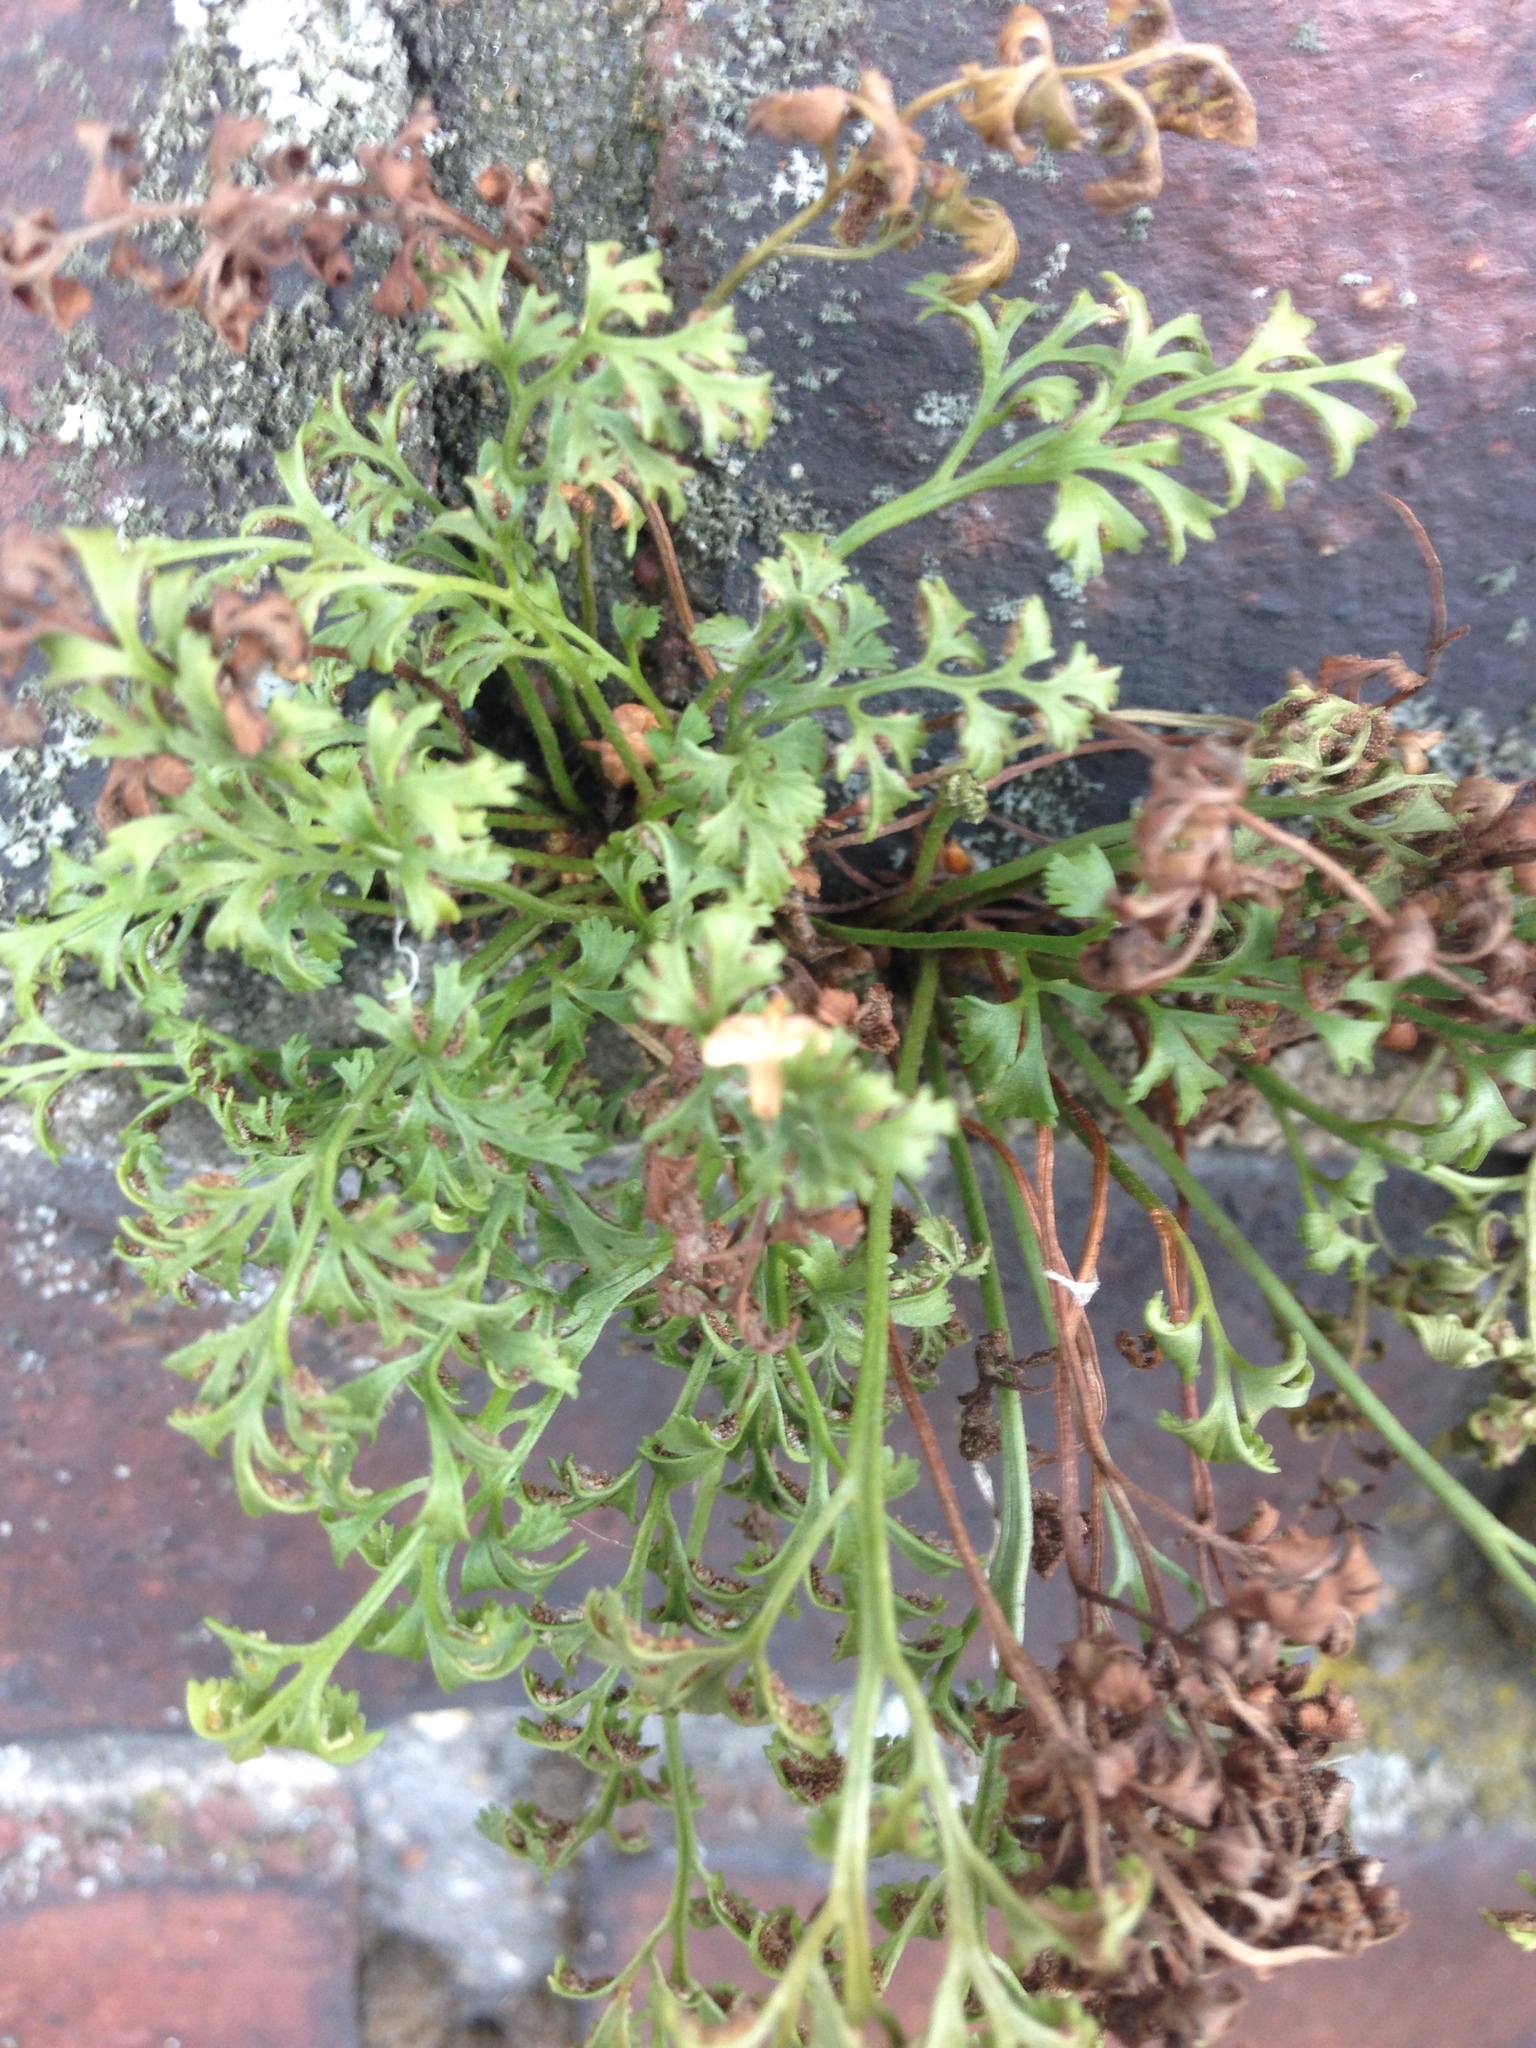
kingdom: Plantae
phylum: Tracheophyta
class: Polypodiopsida
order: Polypodiales
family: Aspleniaceae
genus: Asplenium
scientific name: Asplenium ruta-muraria
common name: Wall-rue
